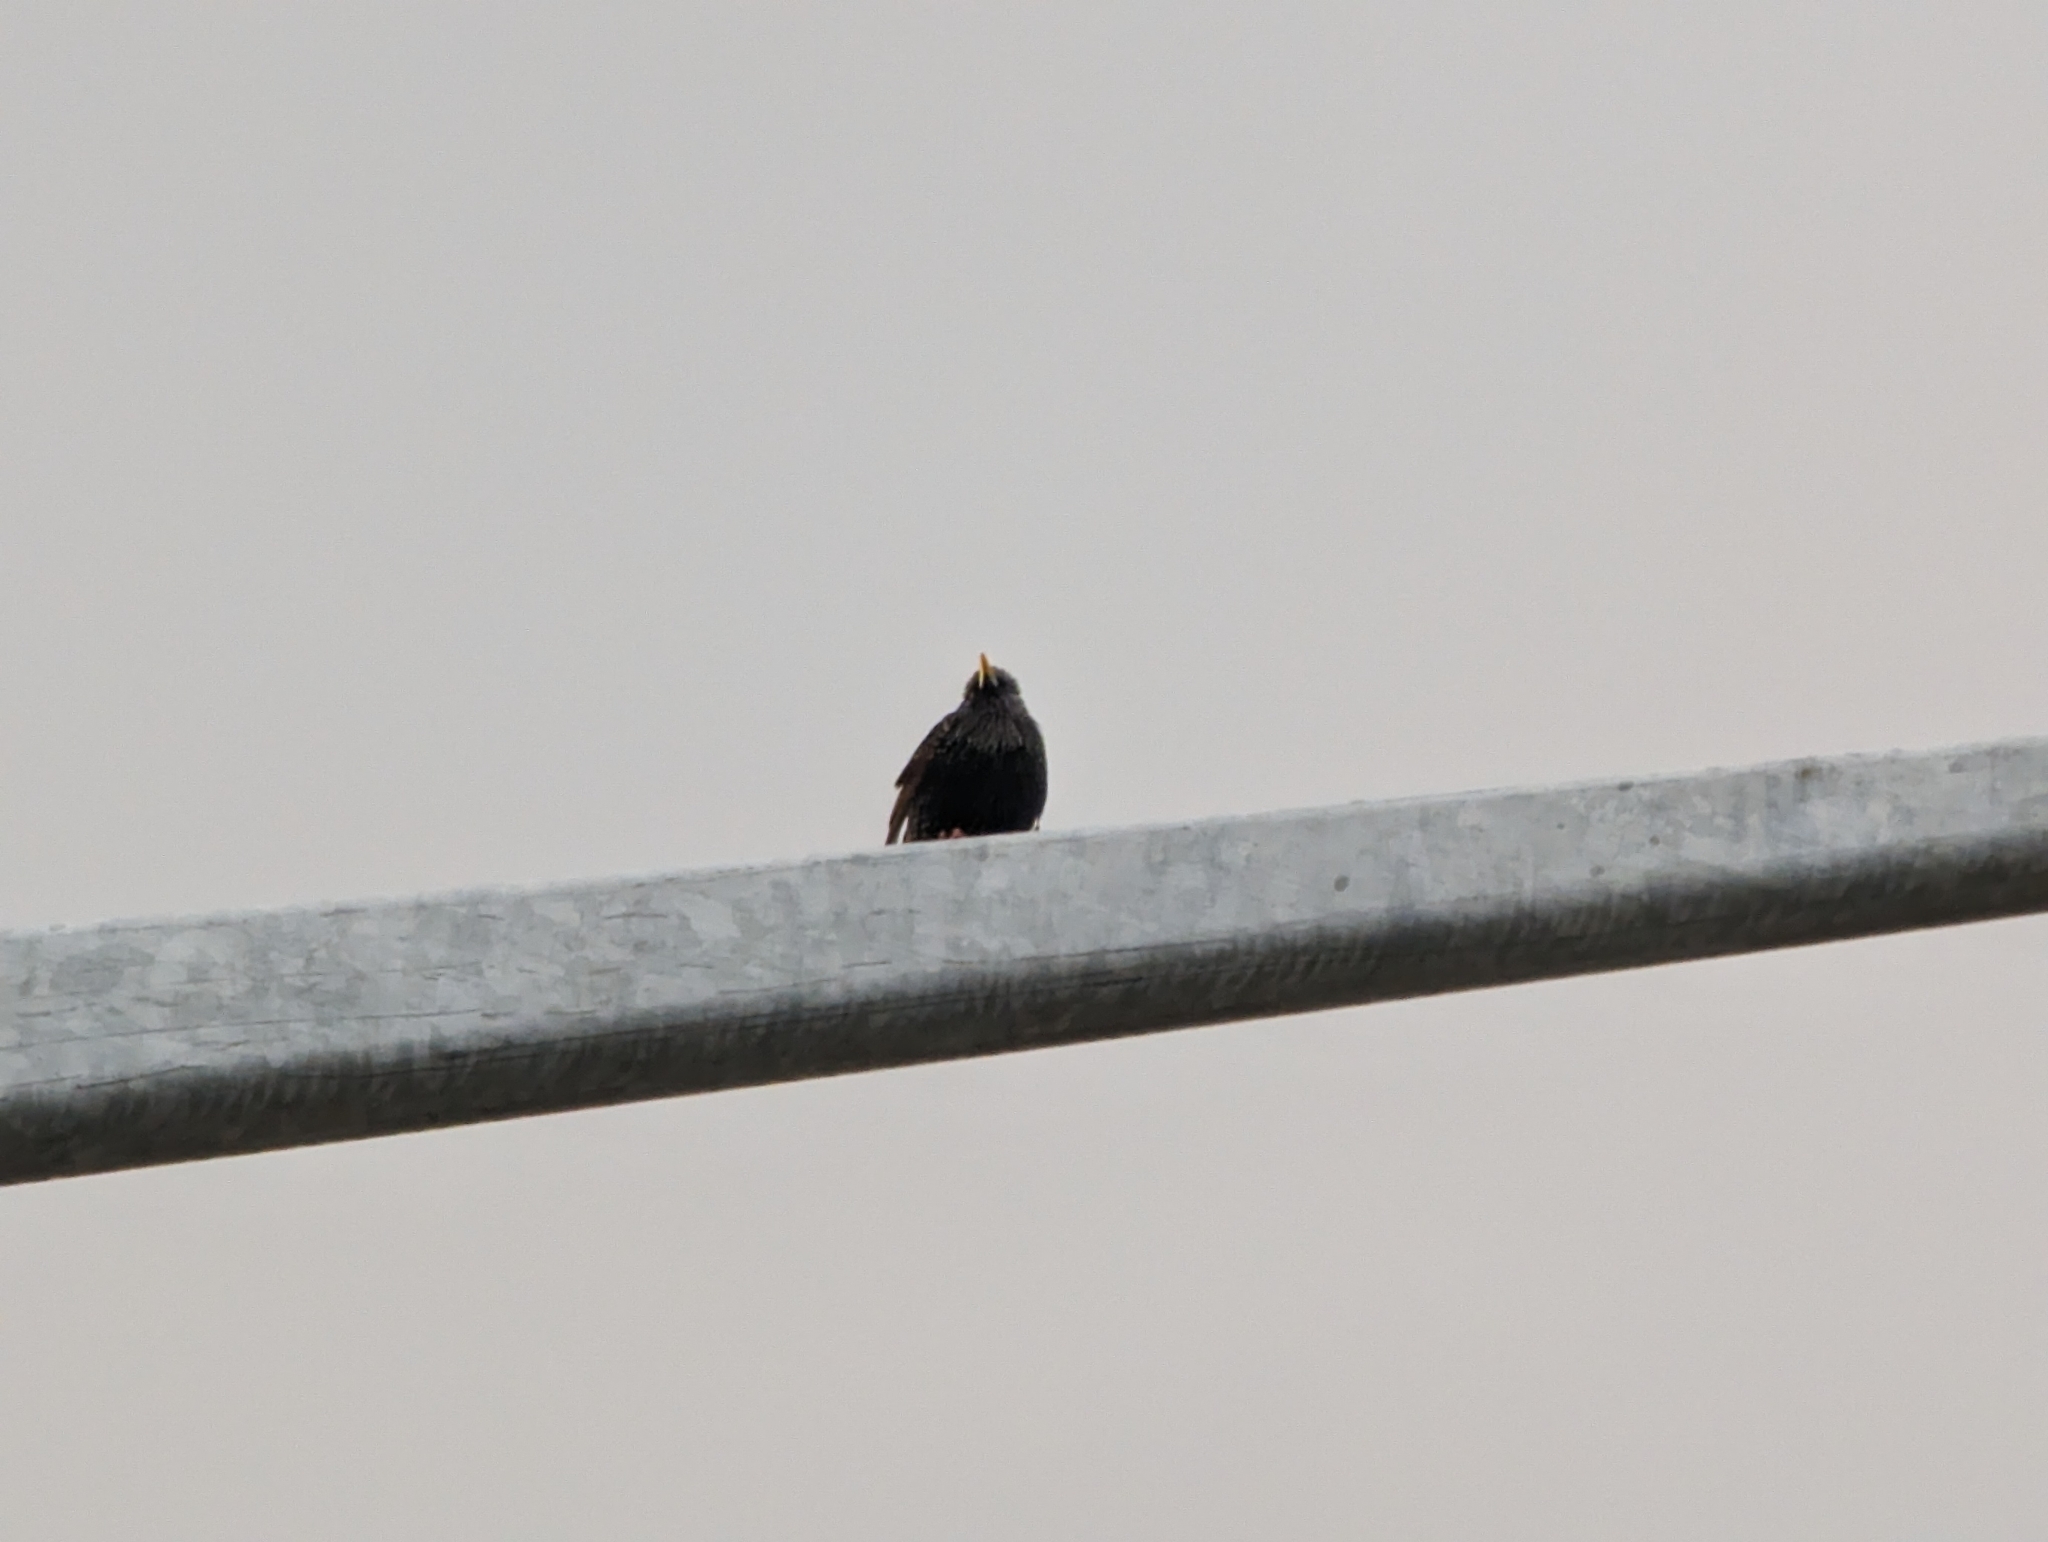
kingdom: Animalia
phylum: Chordata
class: Aves
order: Passeriformes
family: Sturnidae
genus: Sturnus
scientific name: Sturnus vulgaris
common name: Common starling
